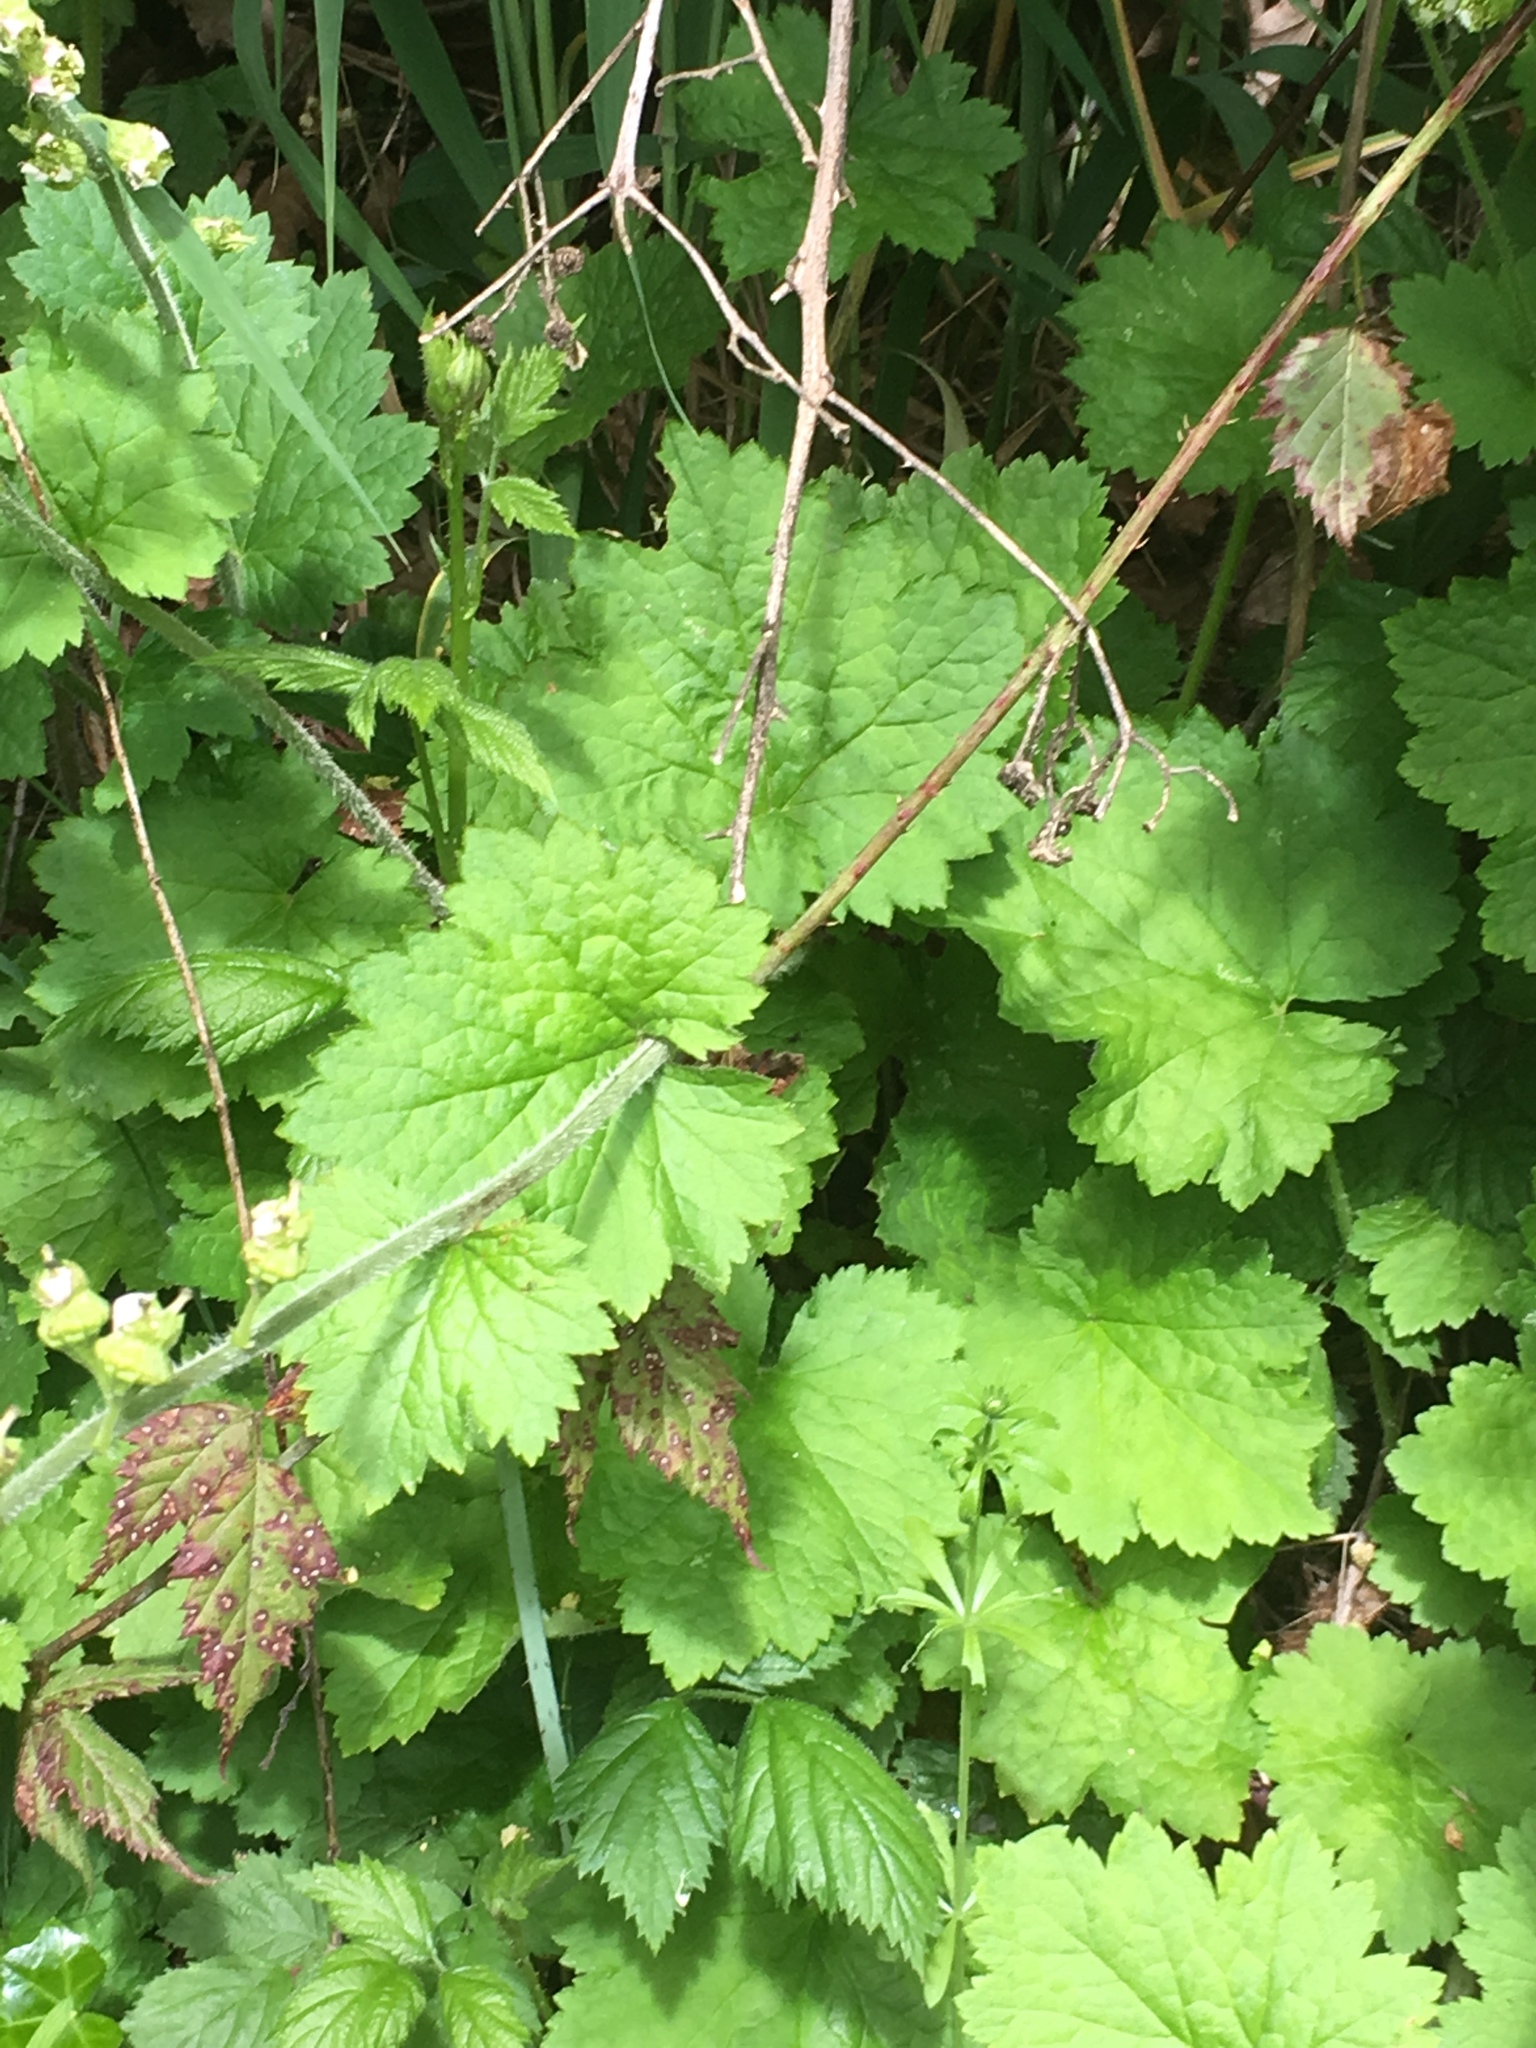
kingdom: Plantae
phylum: Tracheophyta
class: Magnoliopsida
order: Saxifragales
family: Saxifragaceae
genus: Tellima
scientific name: Tellima grandiflora
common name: Fringecups
